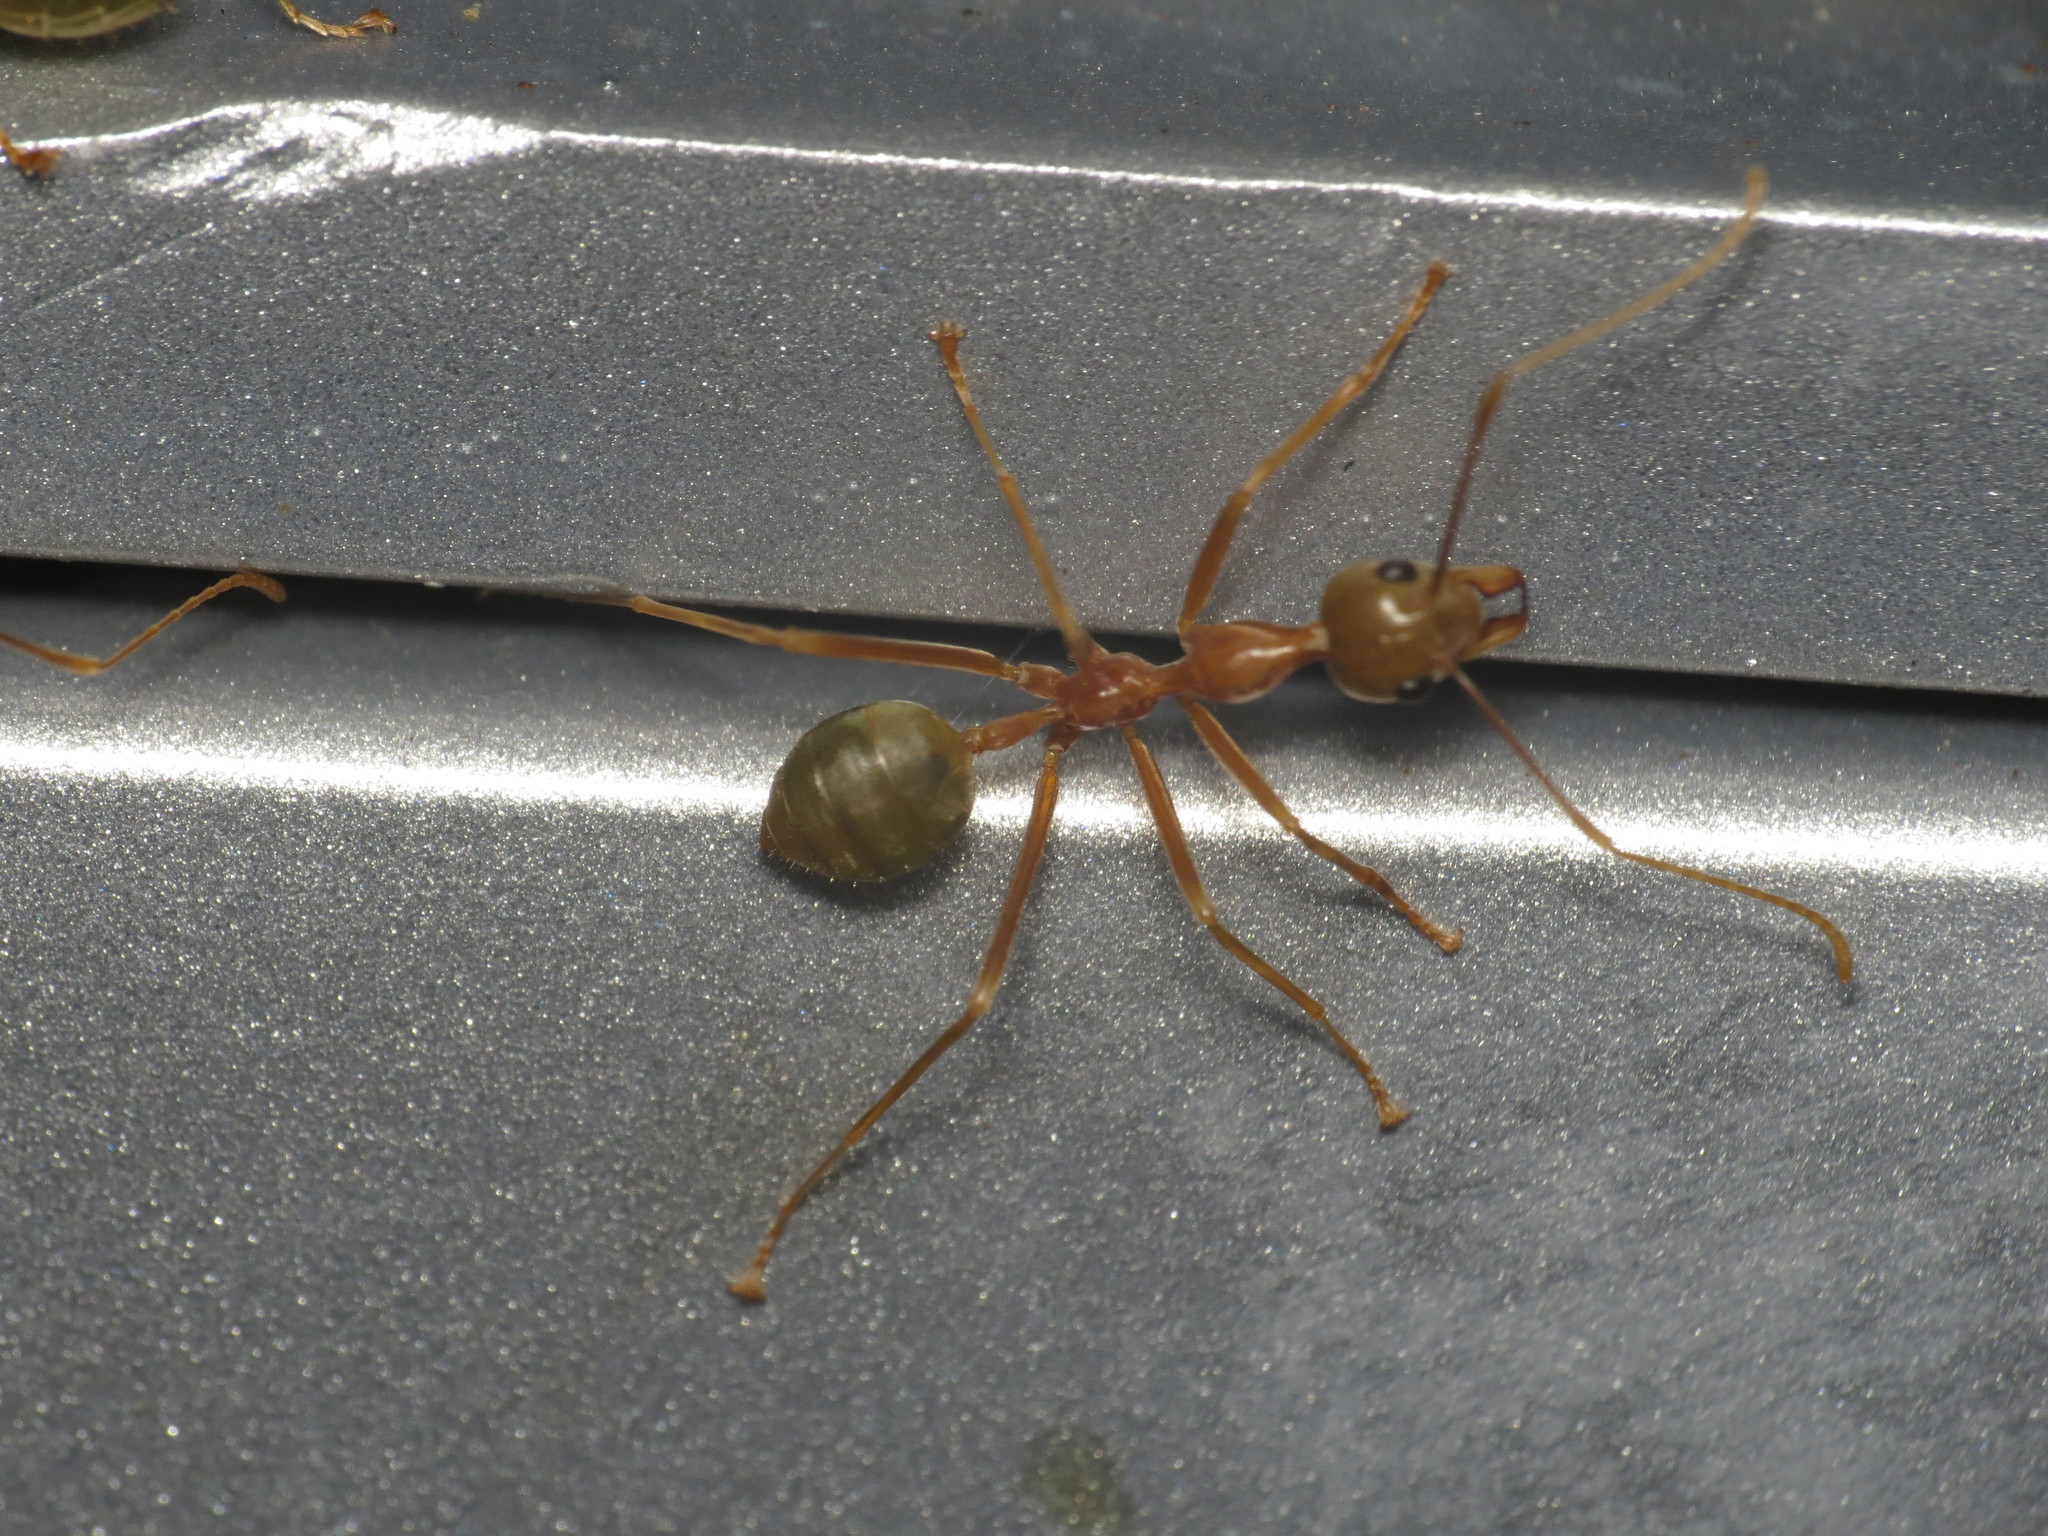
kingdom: Animalia
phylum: Arthropoda
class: Insecta
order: Hymenoptera
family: Formicidae
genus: Oecophylla
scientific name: Oecophylla smaragdina
